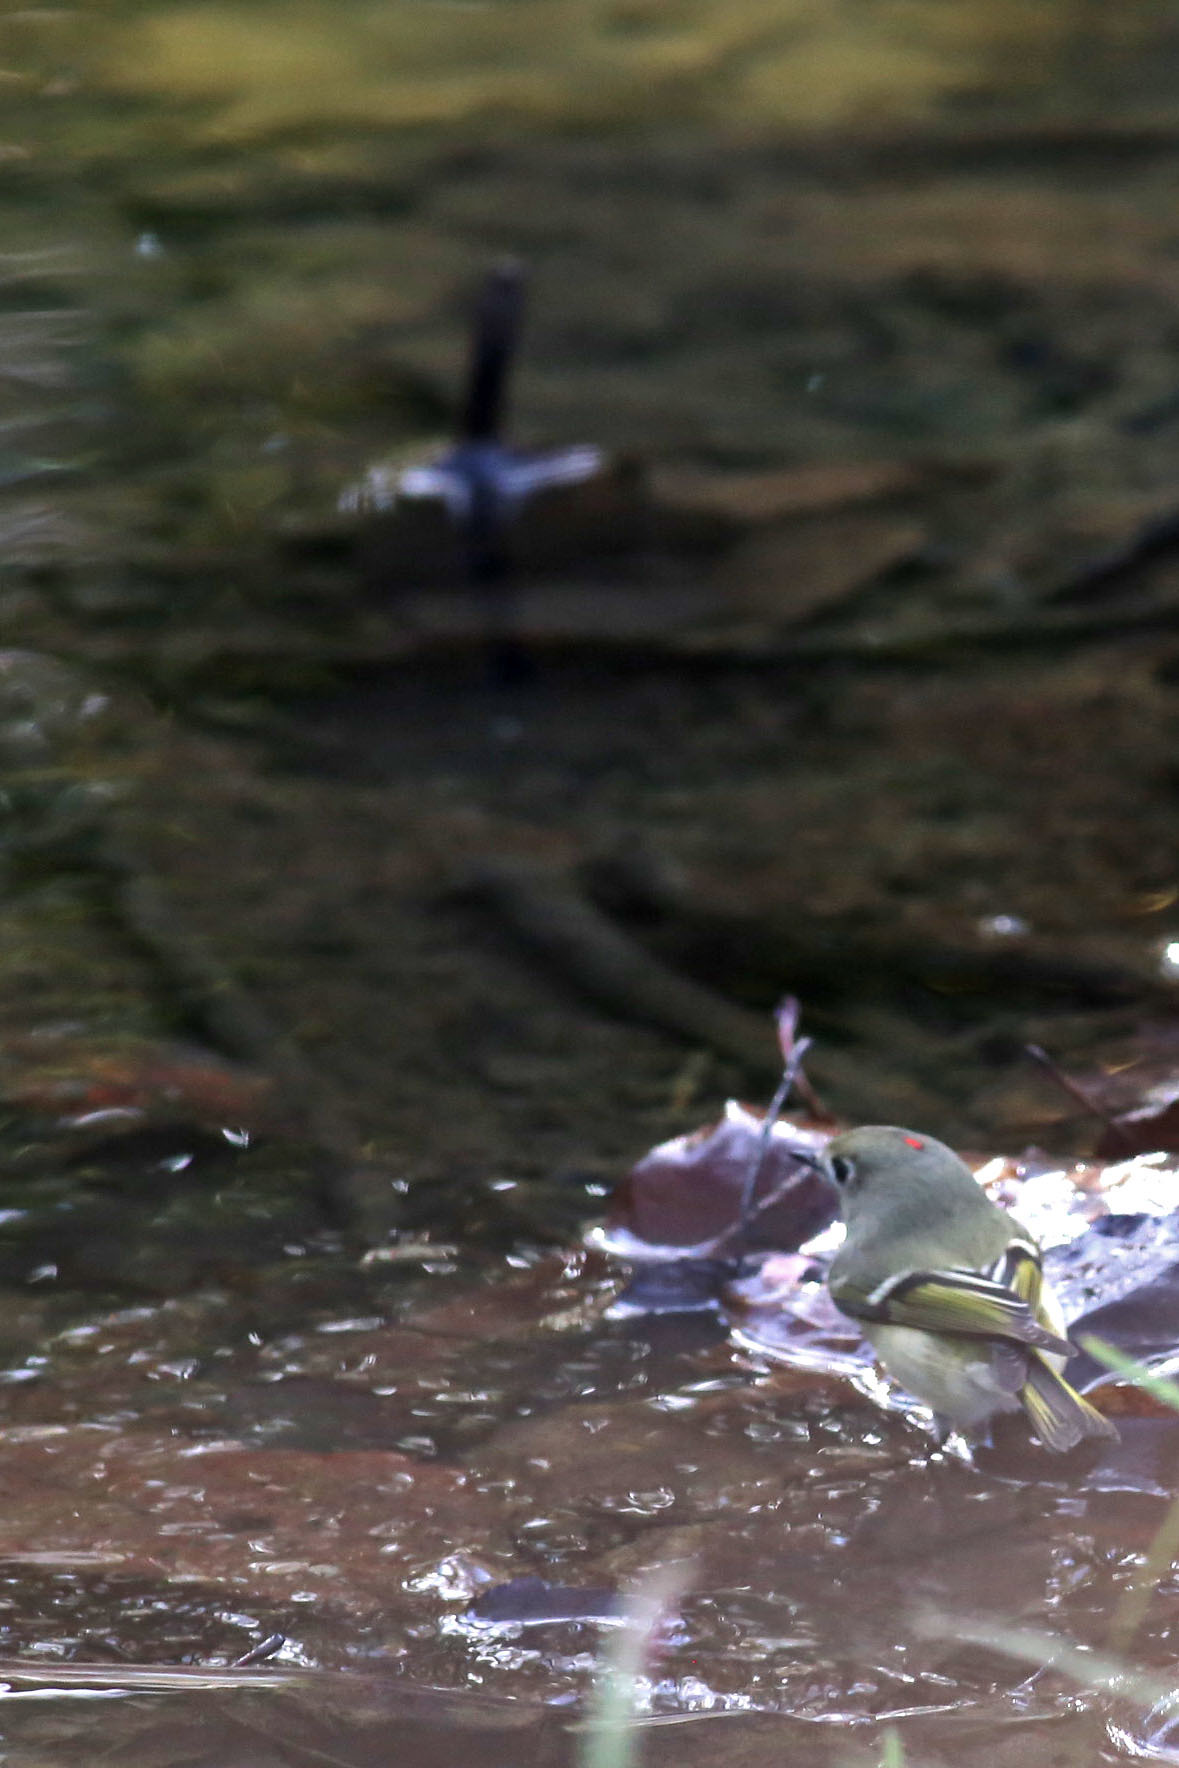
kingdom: Animalia
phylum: Chordata
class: Aves
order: Passeriformes
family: Regulidae
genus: Regulus
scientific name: Regulus calendula
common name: Ruby-crowned kinglet
